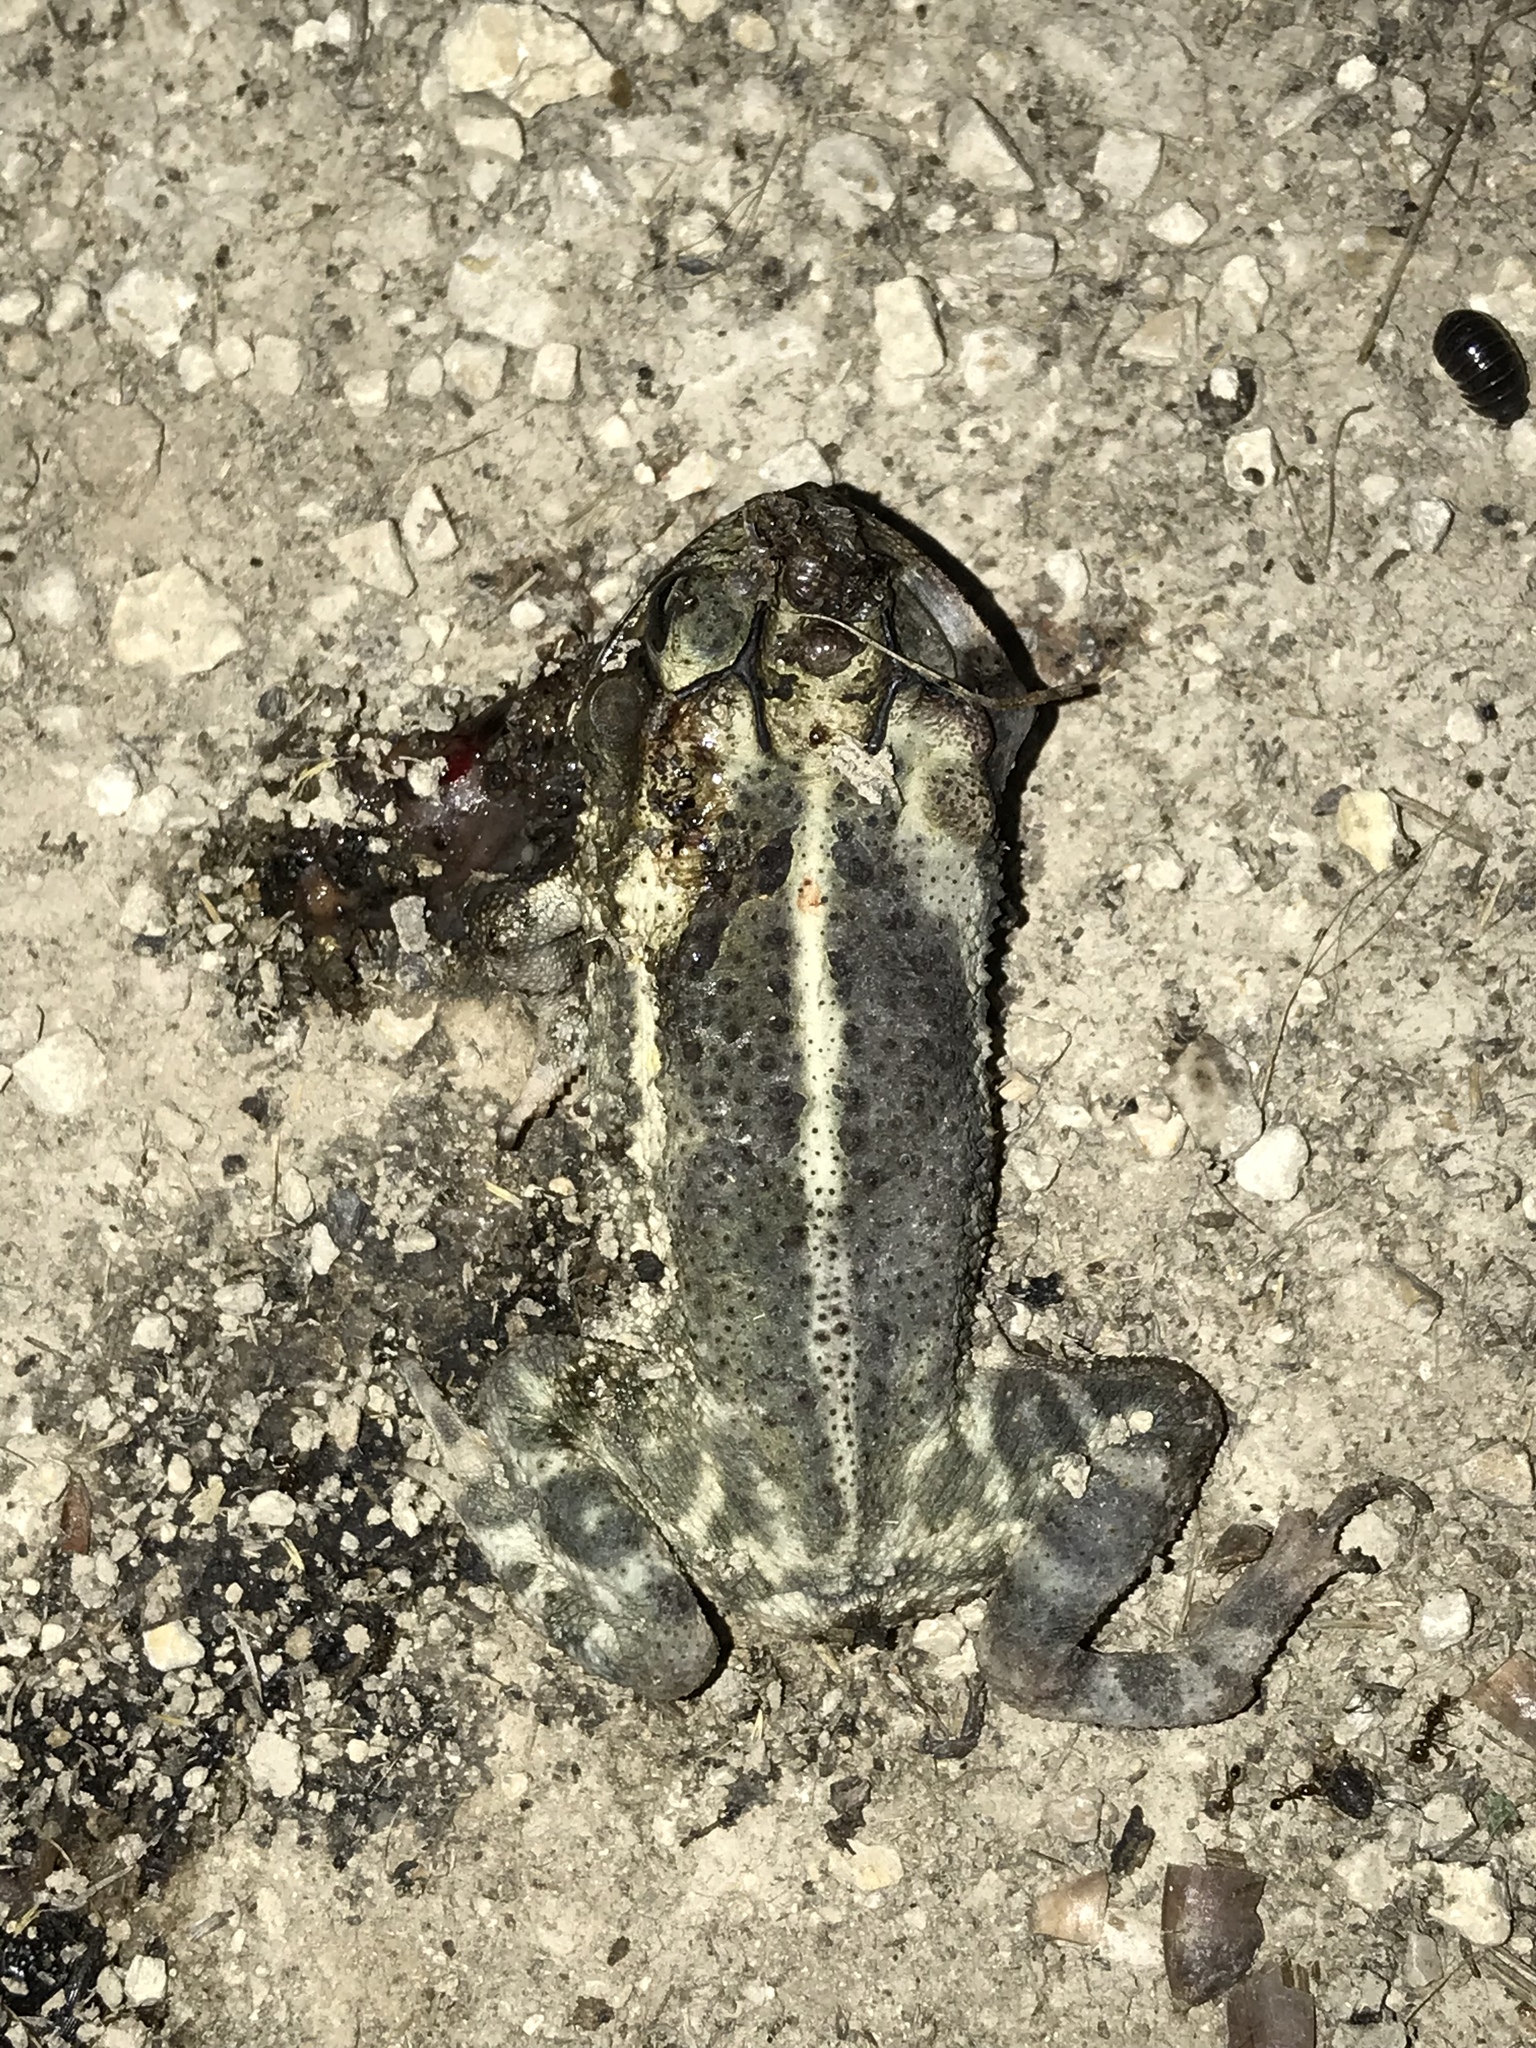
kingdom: Animalia
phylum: Chordata
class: Amphibia
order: Anura
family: Bufonidae
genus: Incilius
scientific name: Incilius nebulifer
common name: Gulf coast toad
